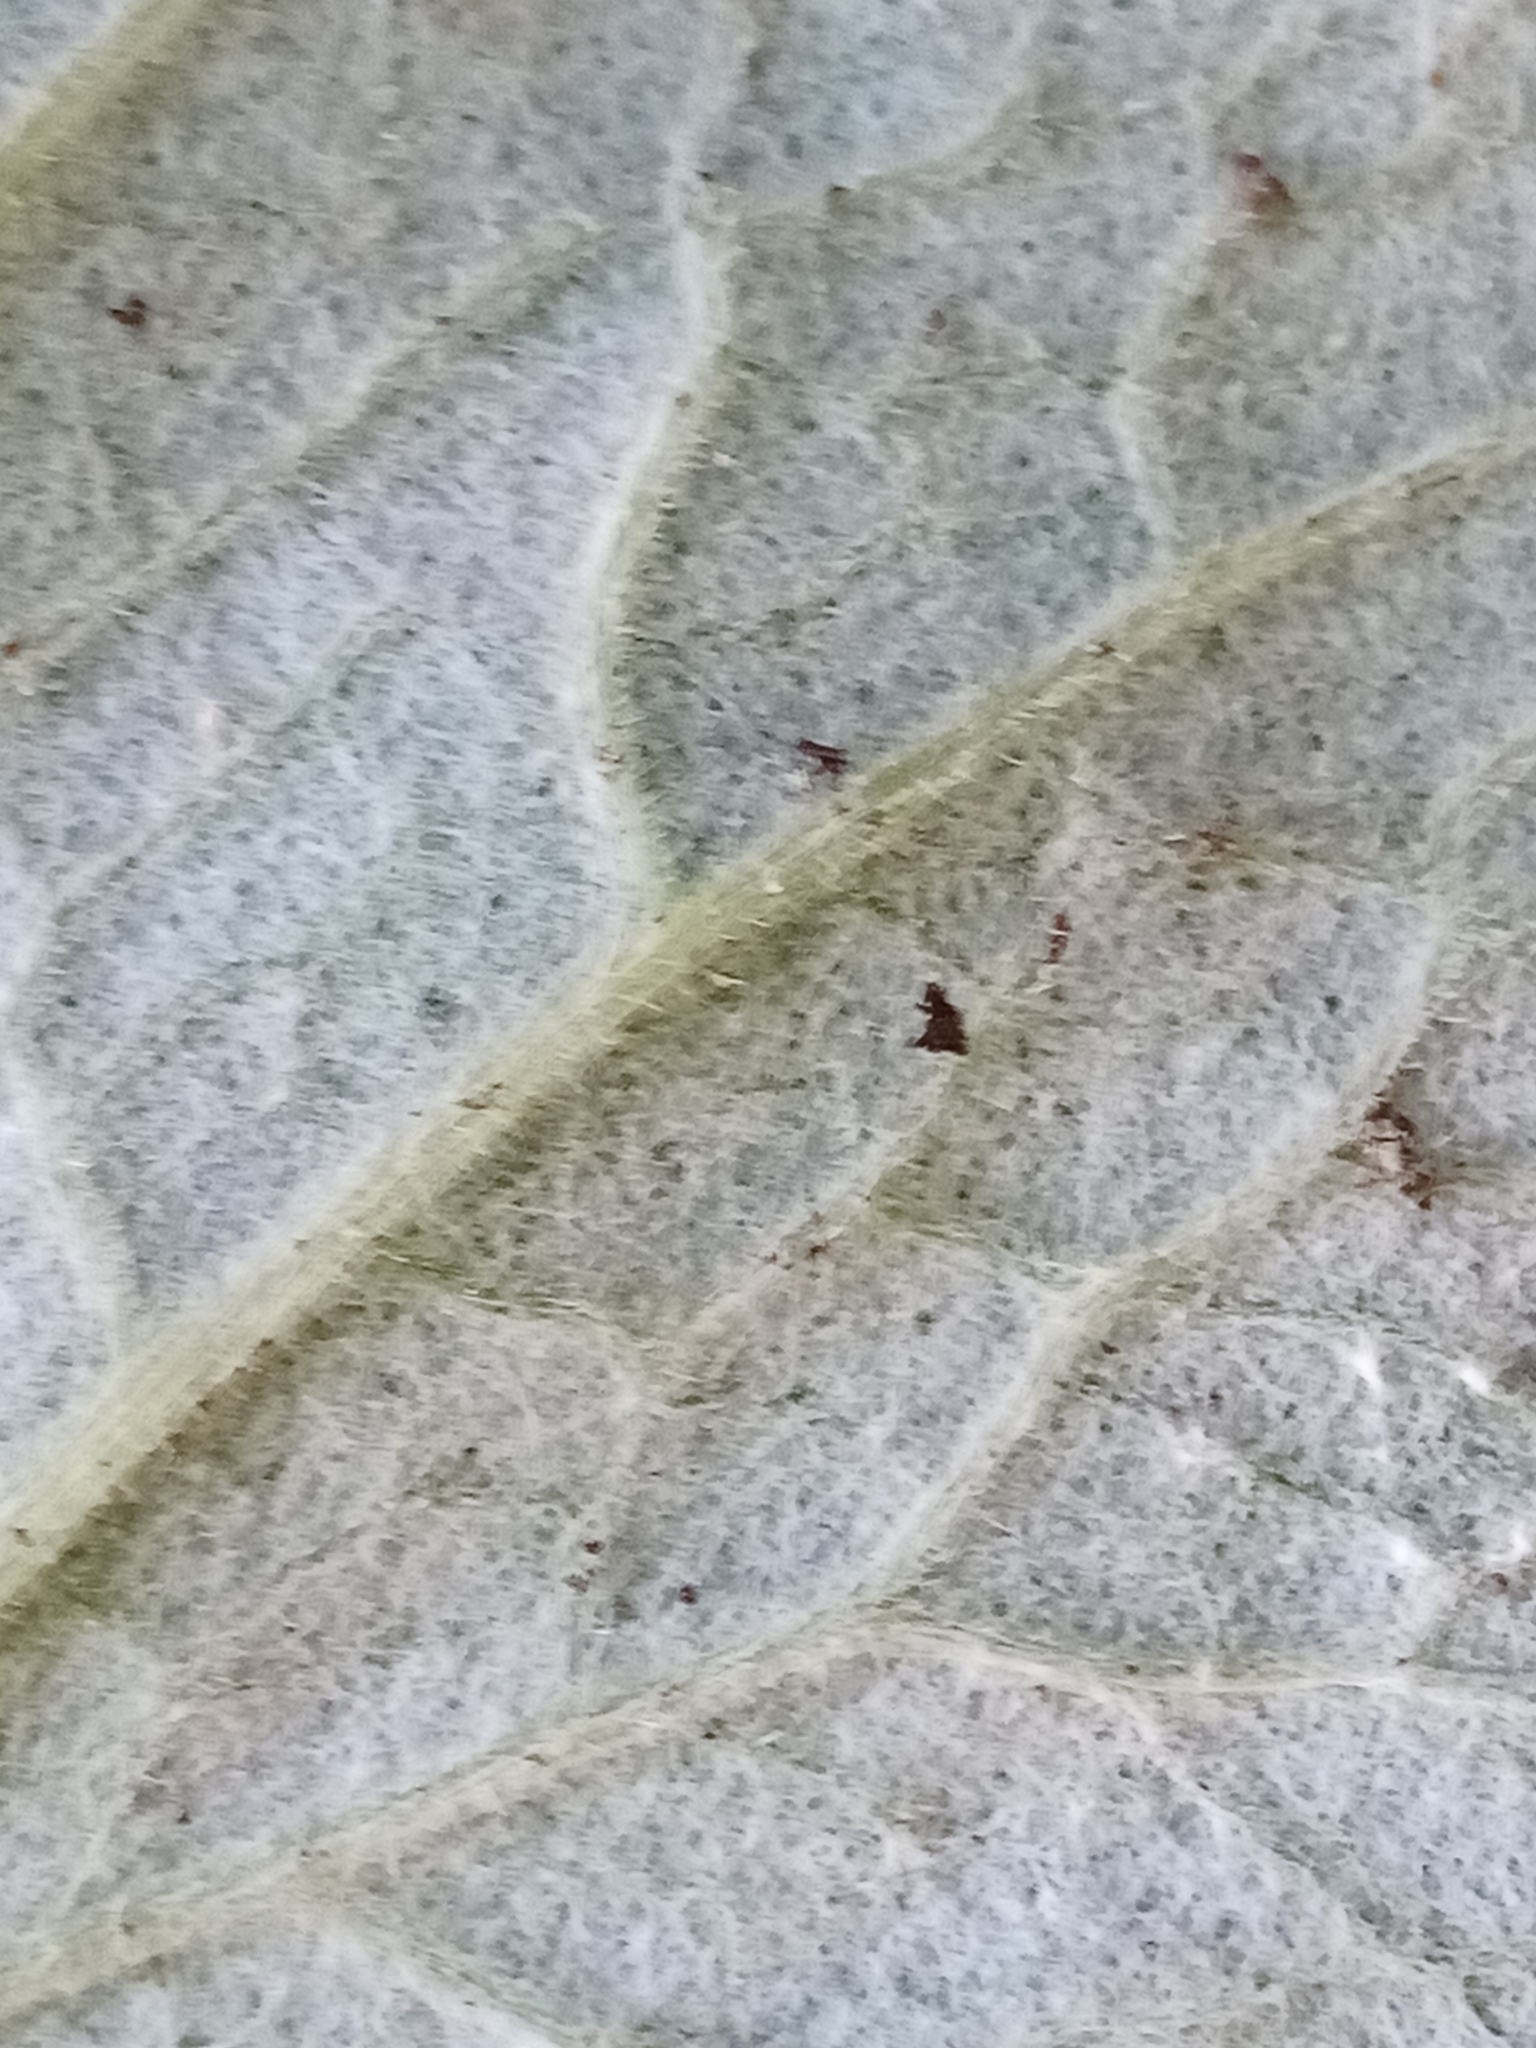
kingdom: Plantae
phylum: Tracheophyta
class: Magnoliopsida
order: Asterales
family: Asteraceae
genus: Pericallis
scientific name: Pericallis hybrida
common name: Cineraria
